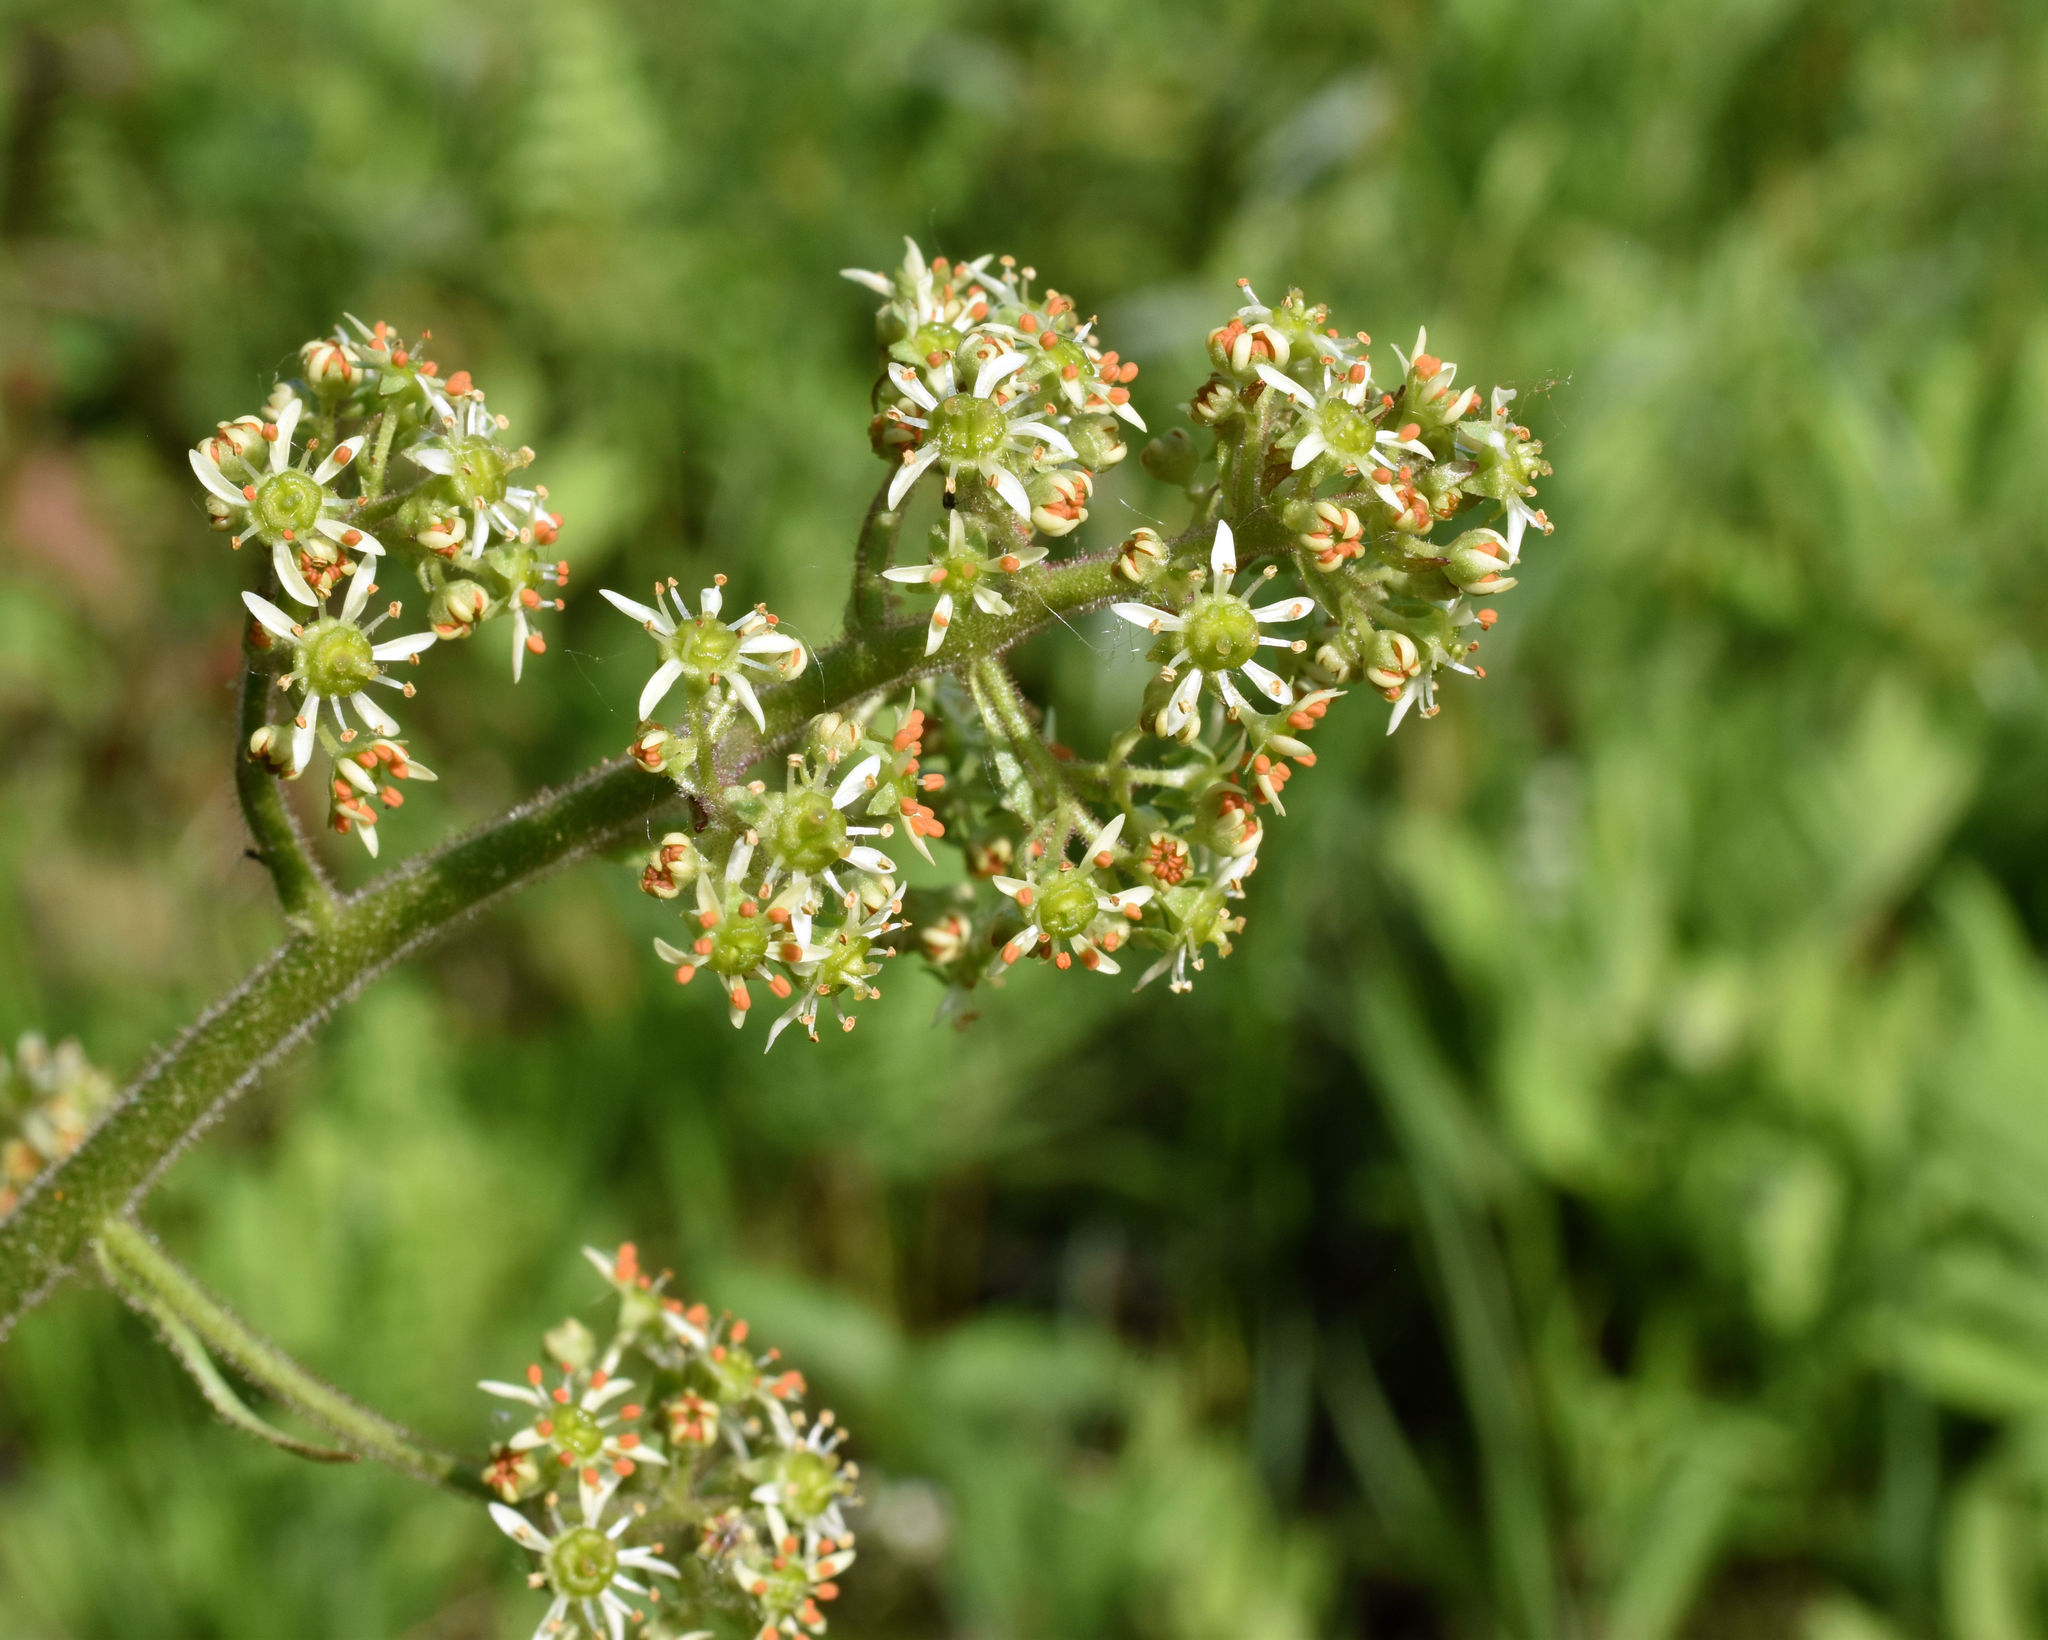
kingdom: Plantae
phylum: Tracheophyta
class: Magnoliopsida
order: Saxifragales
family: Saxifragaceae
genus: Micranthes
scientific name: Micranthes pensylvanica
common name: Marsh saxifrage
